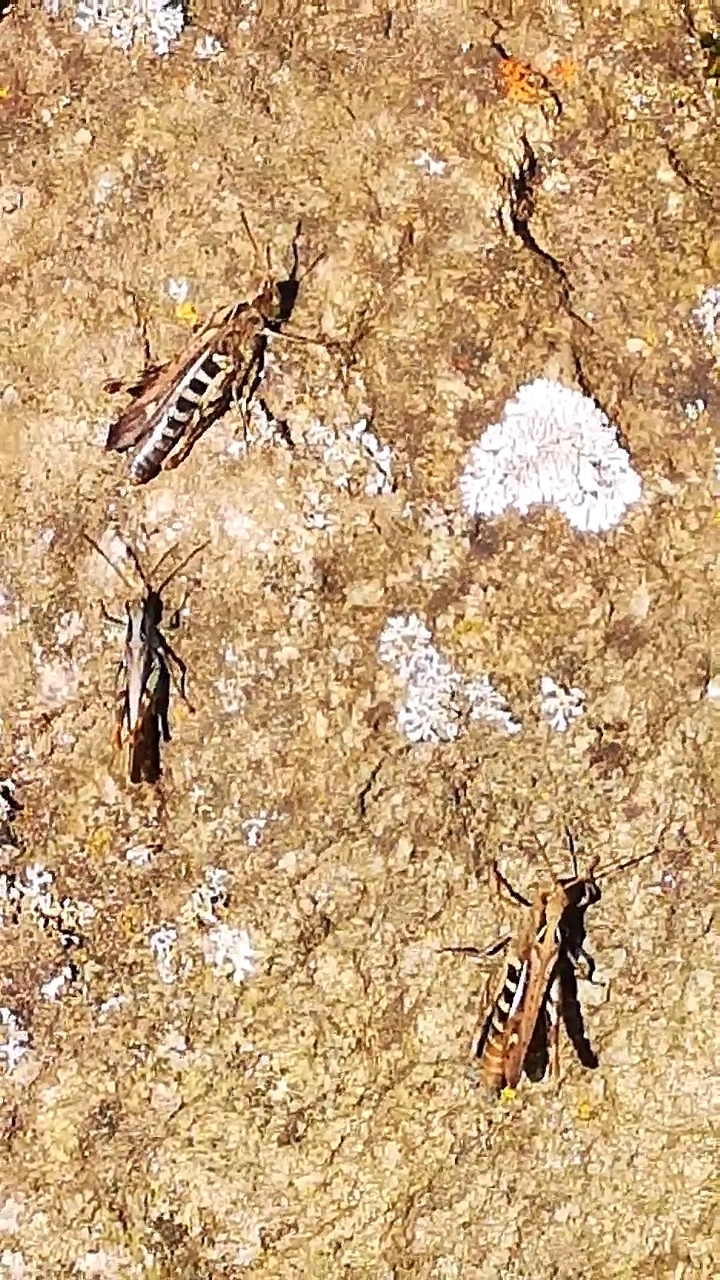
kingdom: Animalia
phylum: Arthropoda
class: Insecta
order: Orthoptera
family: Acrididae
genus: Chorthippus
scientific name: Chorthippus biguttulus
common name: Bow-winged grasshopper
